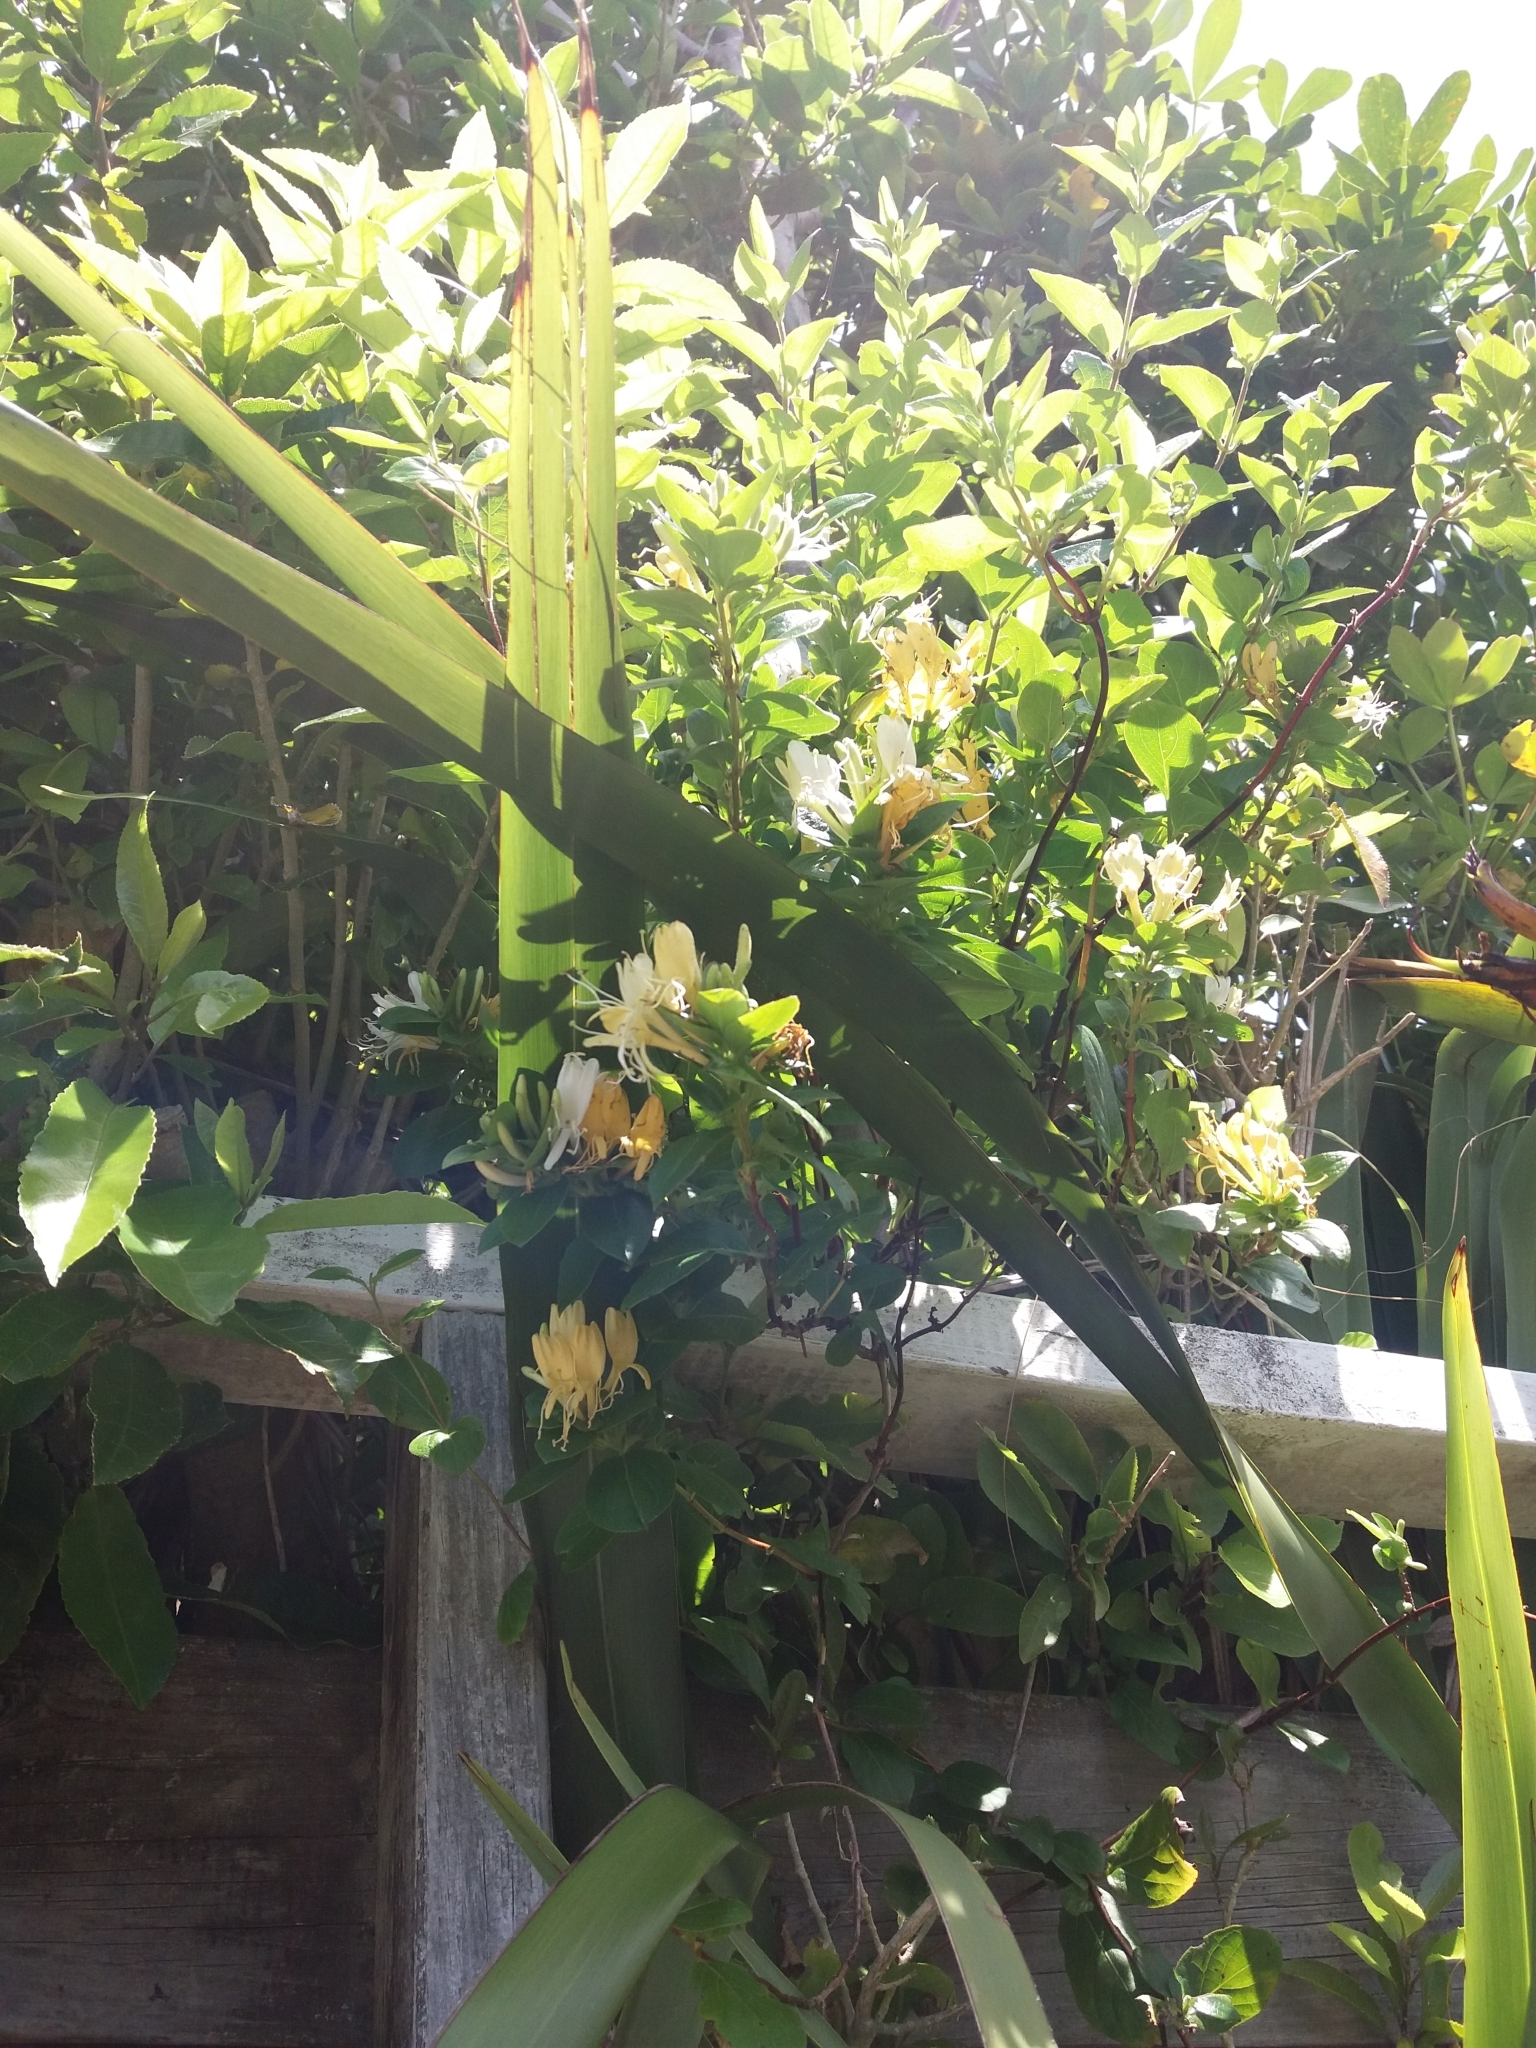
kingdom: Plantae
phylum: Tracheophyta
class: Magnoliopsida
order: Dipsacales
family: Caprifoliaceae
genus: Lonicera
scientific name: Lonicera japonica
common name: Japanese honeysuckle
